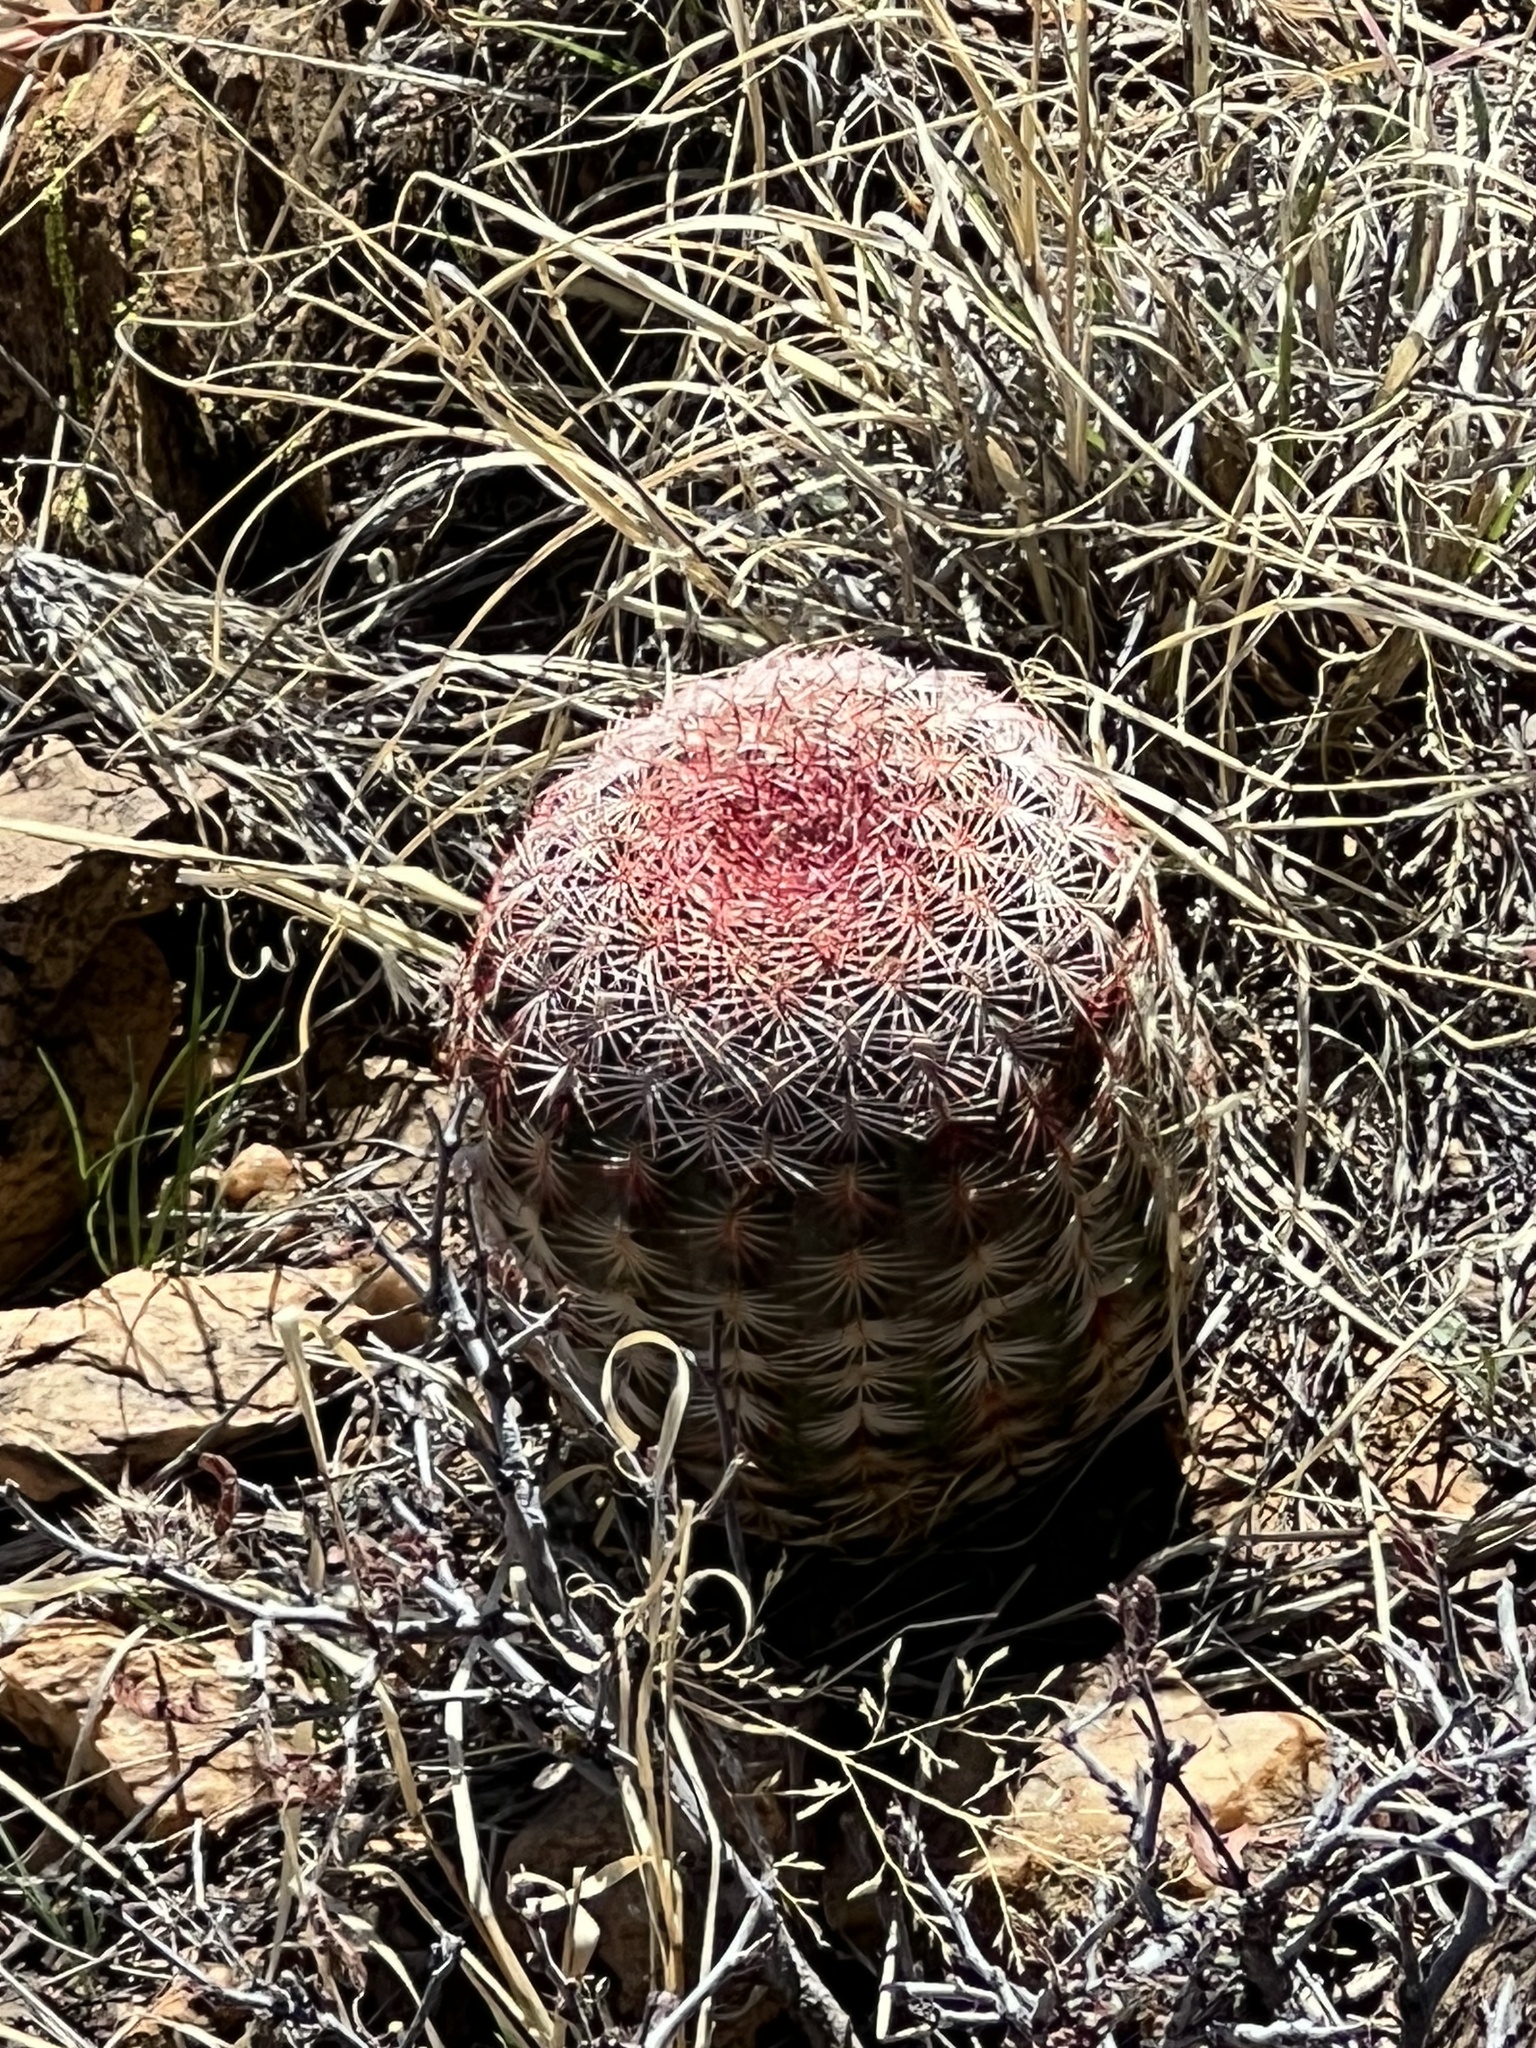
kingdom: Plantae
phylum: Tracheophyta
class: Magnoliopsida
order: Caryophyllales
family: Cactaceae
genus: Echinocereus
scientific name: Echinocereus rigidissimus
